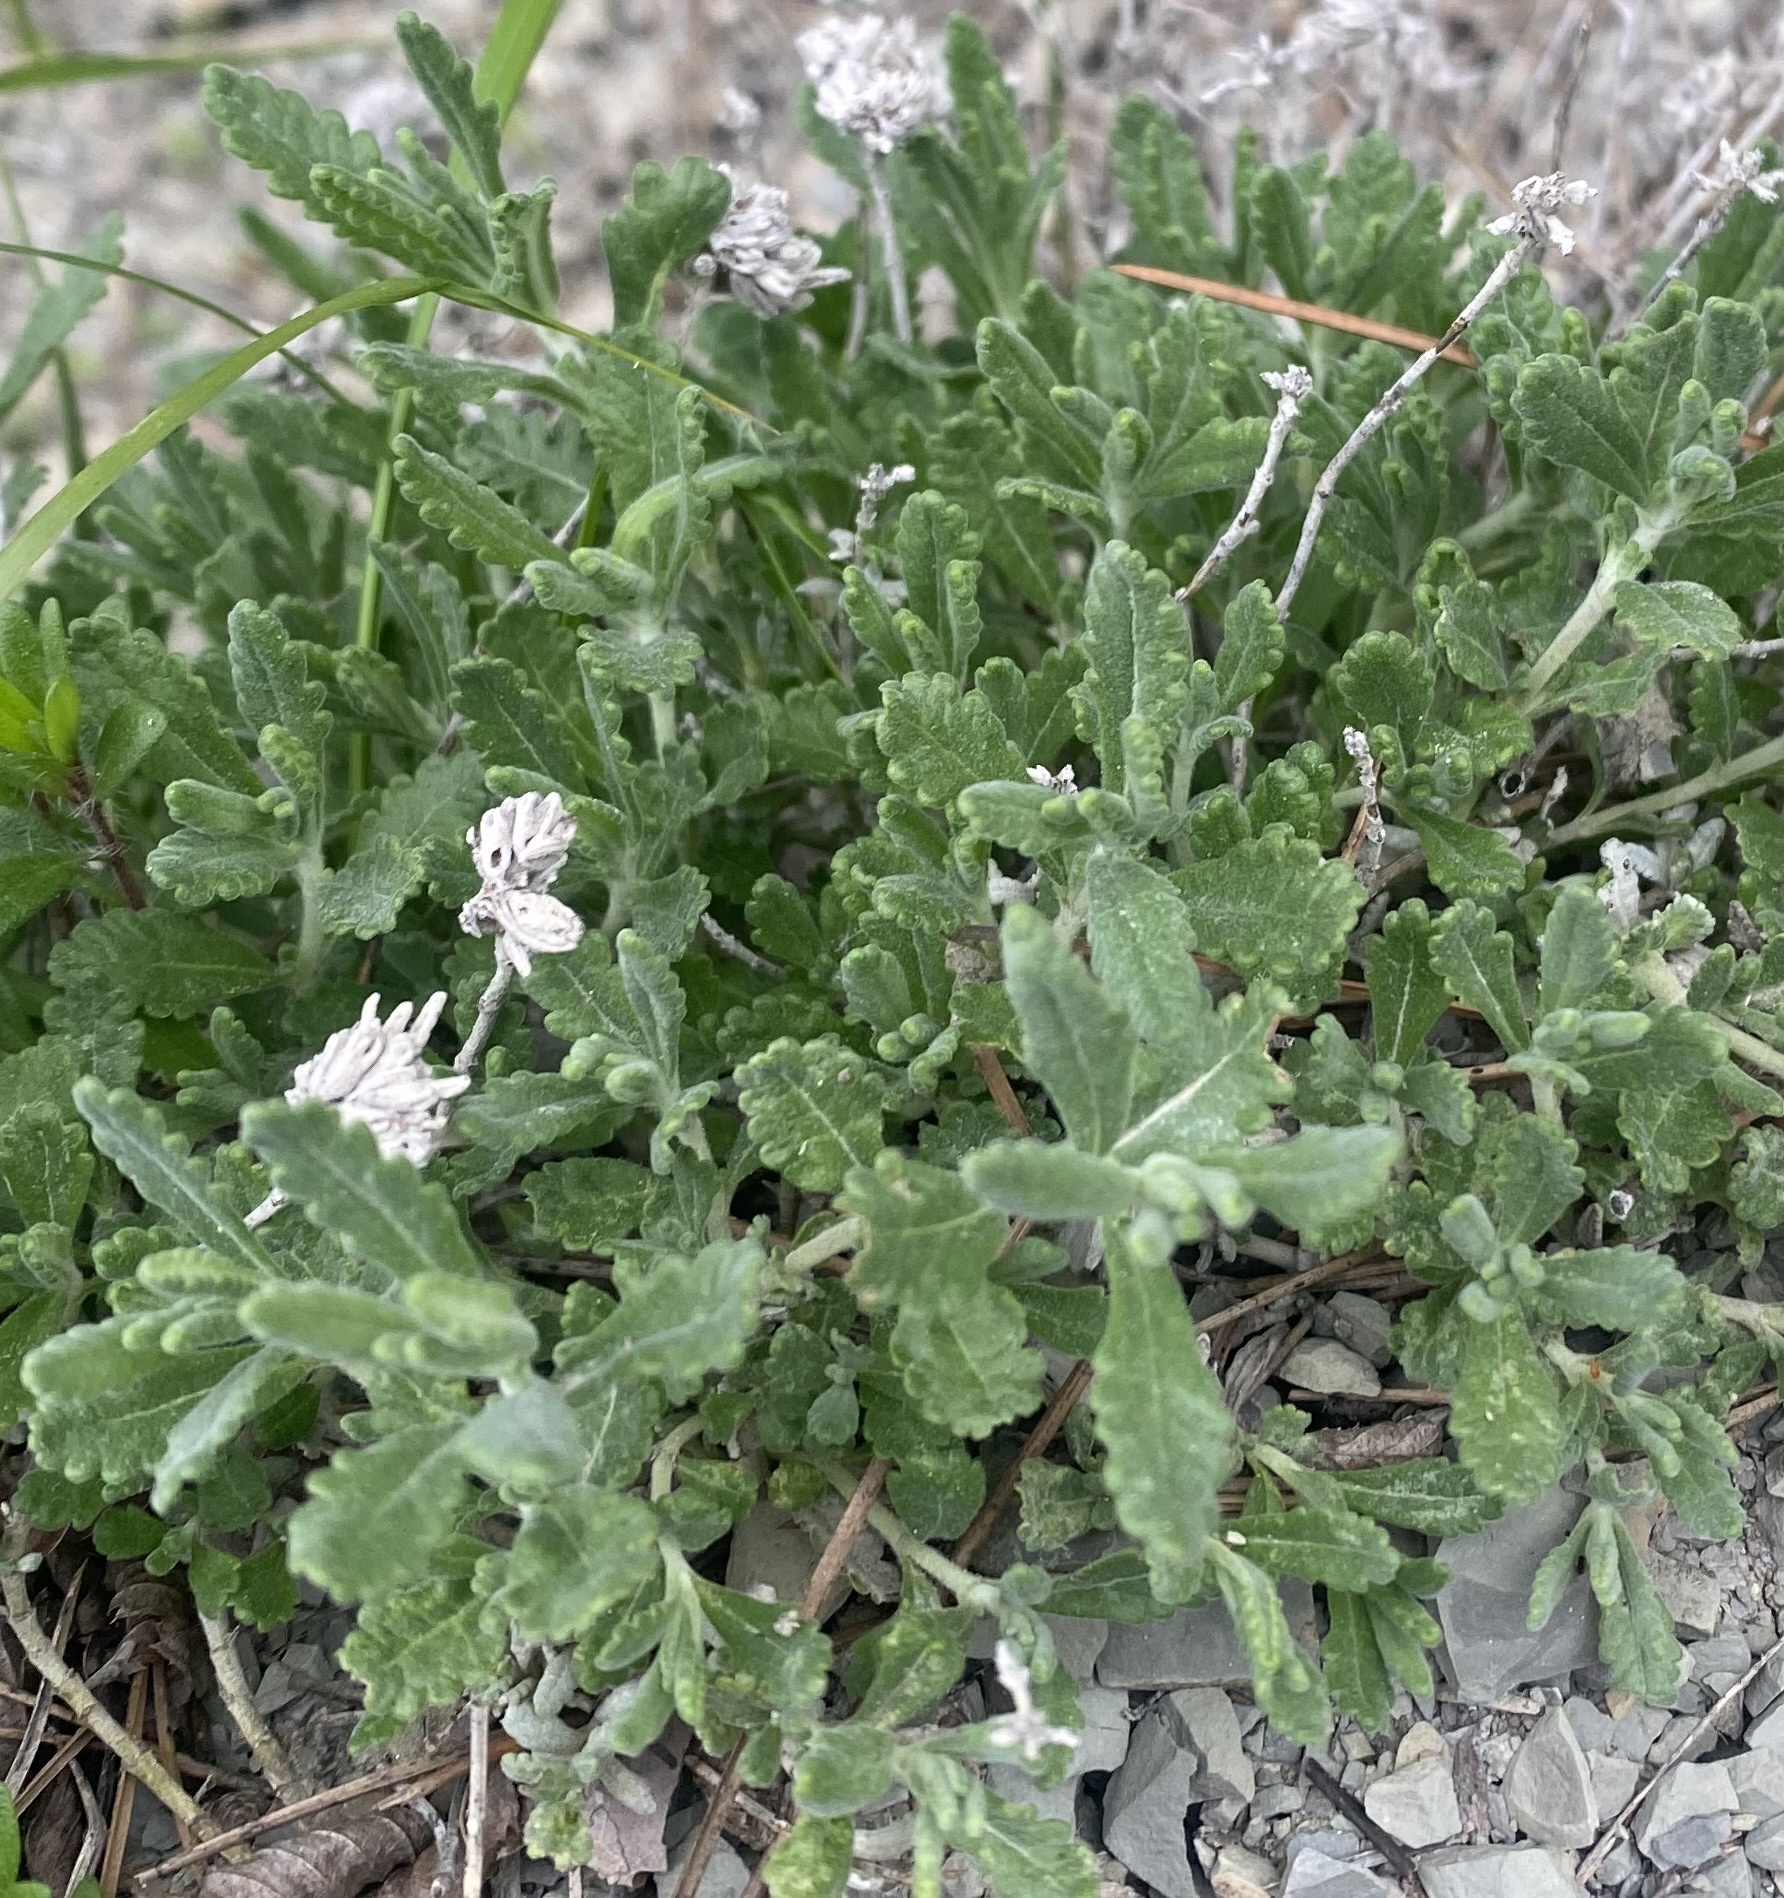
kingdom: Plantae
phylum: Tracheophyta
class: Magnoliopsida
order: Lamiales
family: Lamiaceae
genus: Teucrium
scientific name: Teucrium polium
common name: Poley
